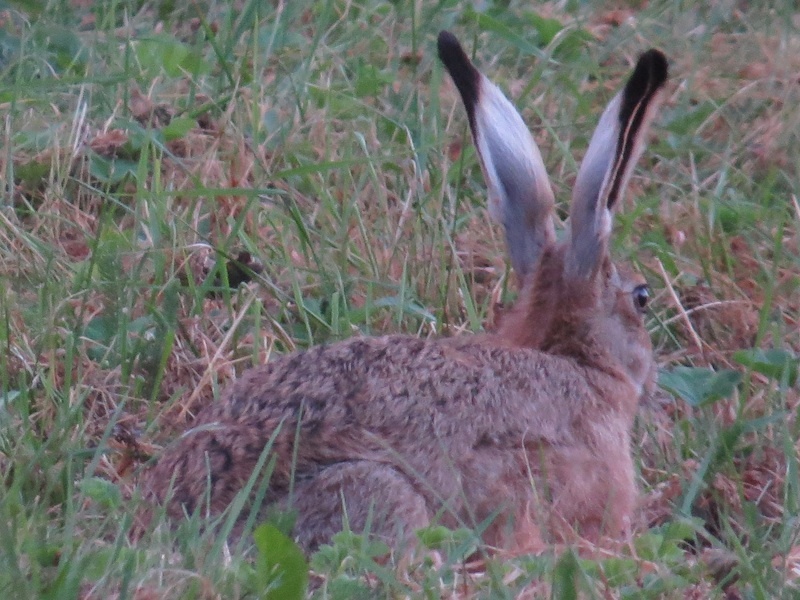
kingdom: Animalia
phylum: Chordata
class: Mammalia
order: Lagomorpha
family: Leporidae
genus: Lepus
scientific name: Lepus europaeus
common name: European hare
